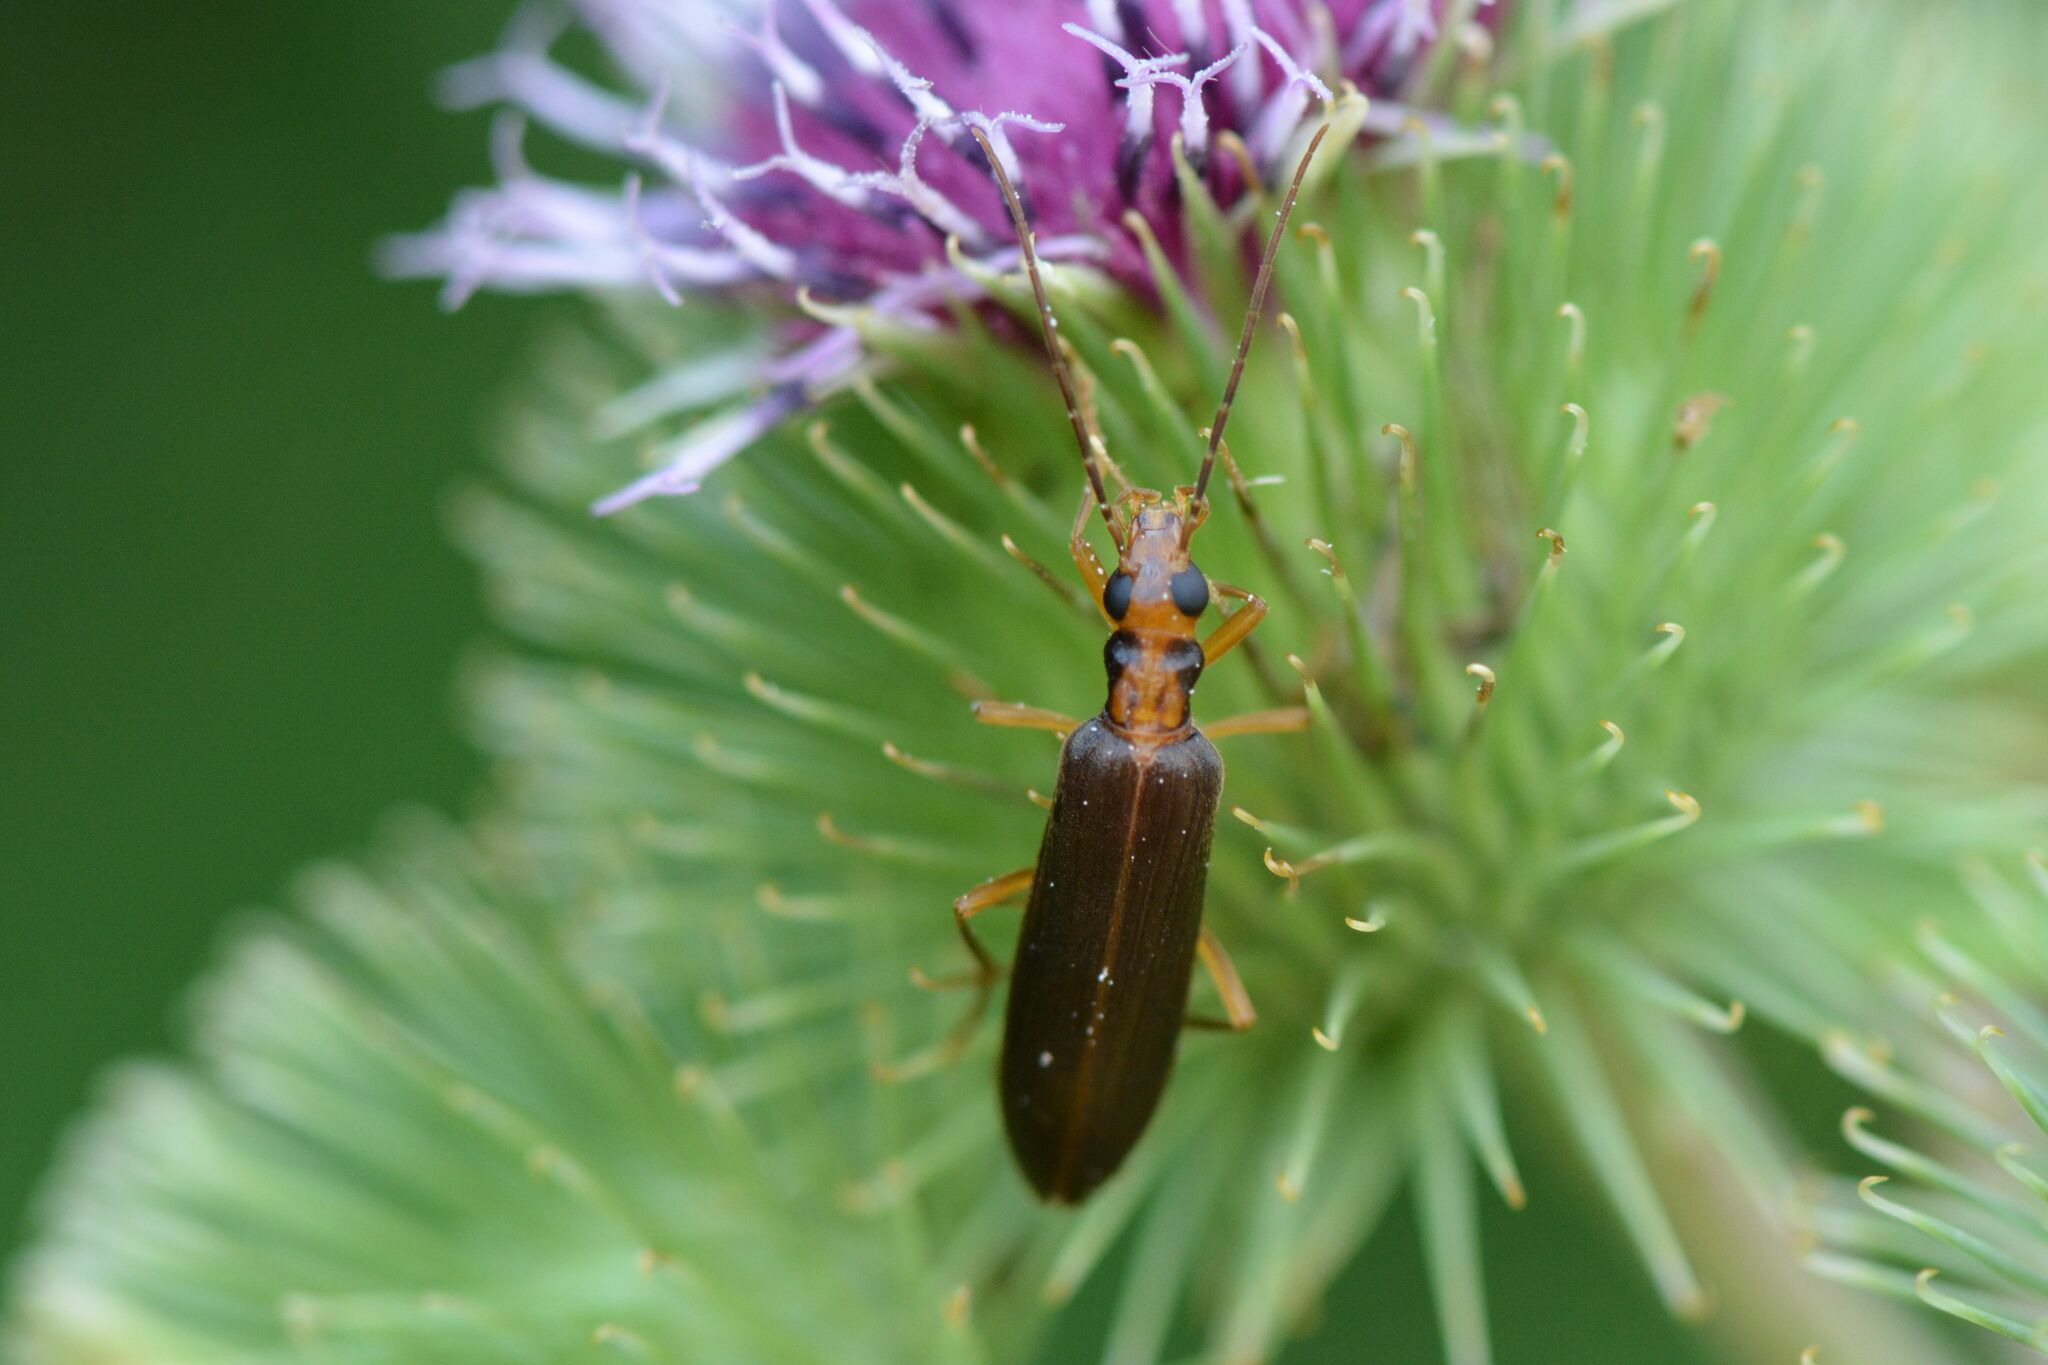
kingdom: Animalia
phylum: Arthropoda
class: Insecta
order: Coleoptera
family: Oedemeridae
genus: Nacerdes
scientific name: Nacerdes carniolica
